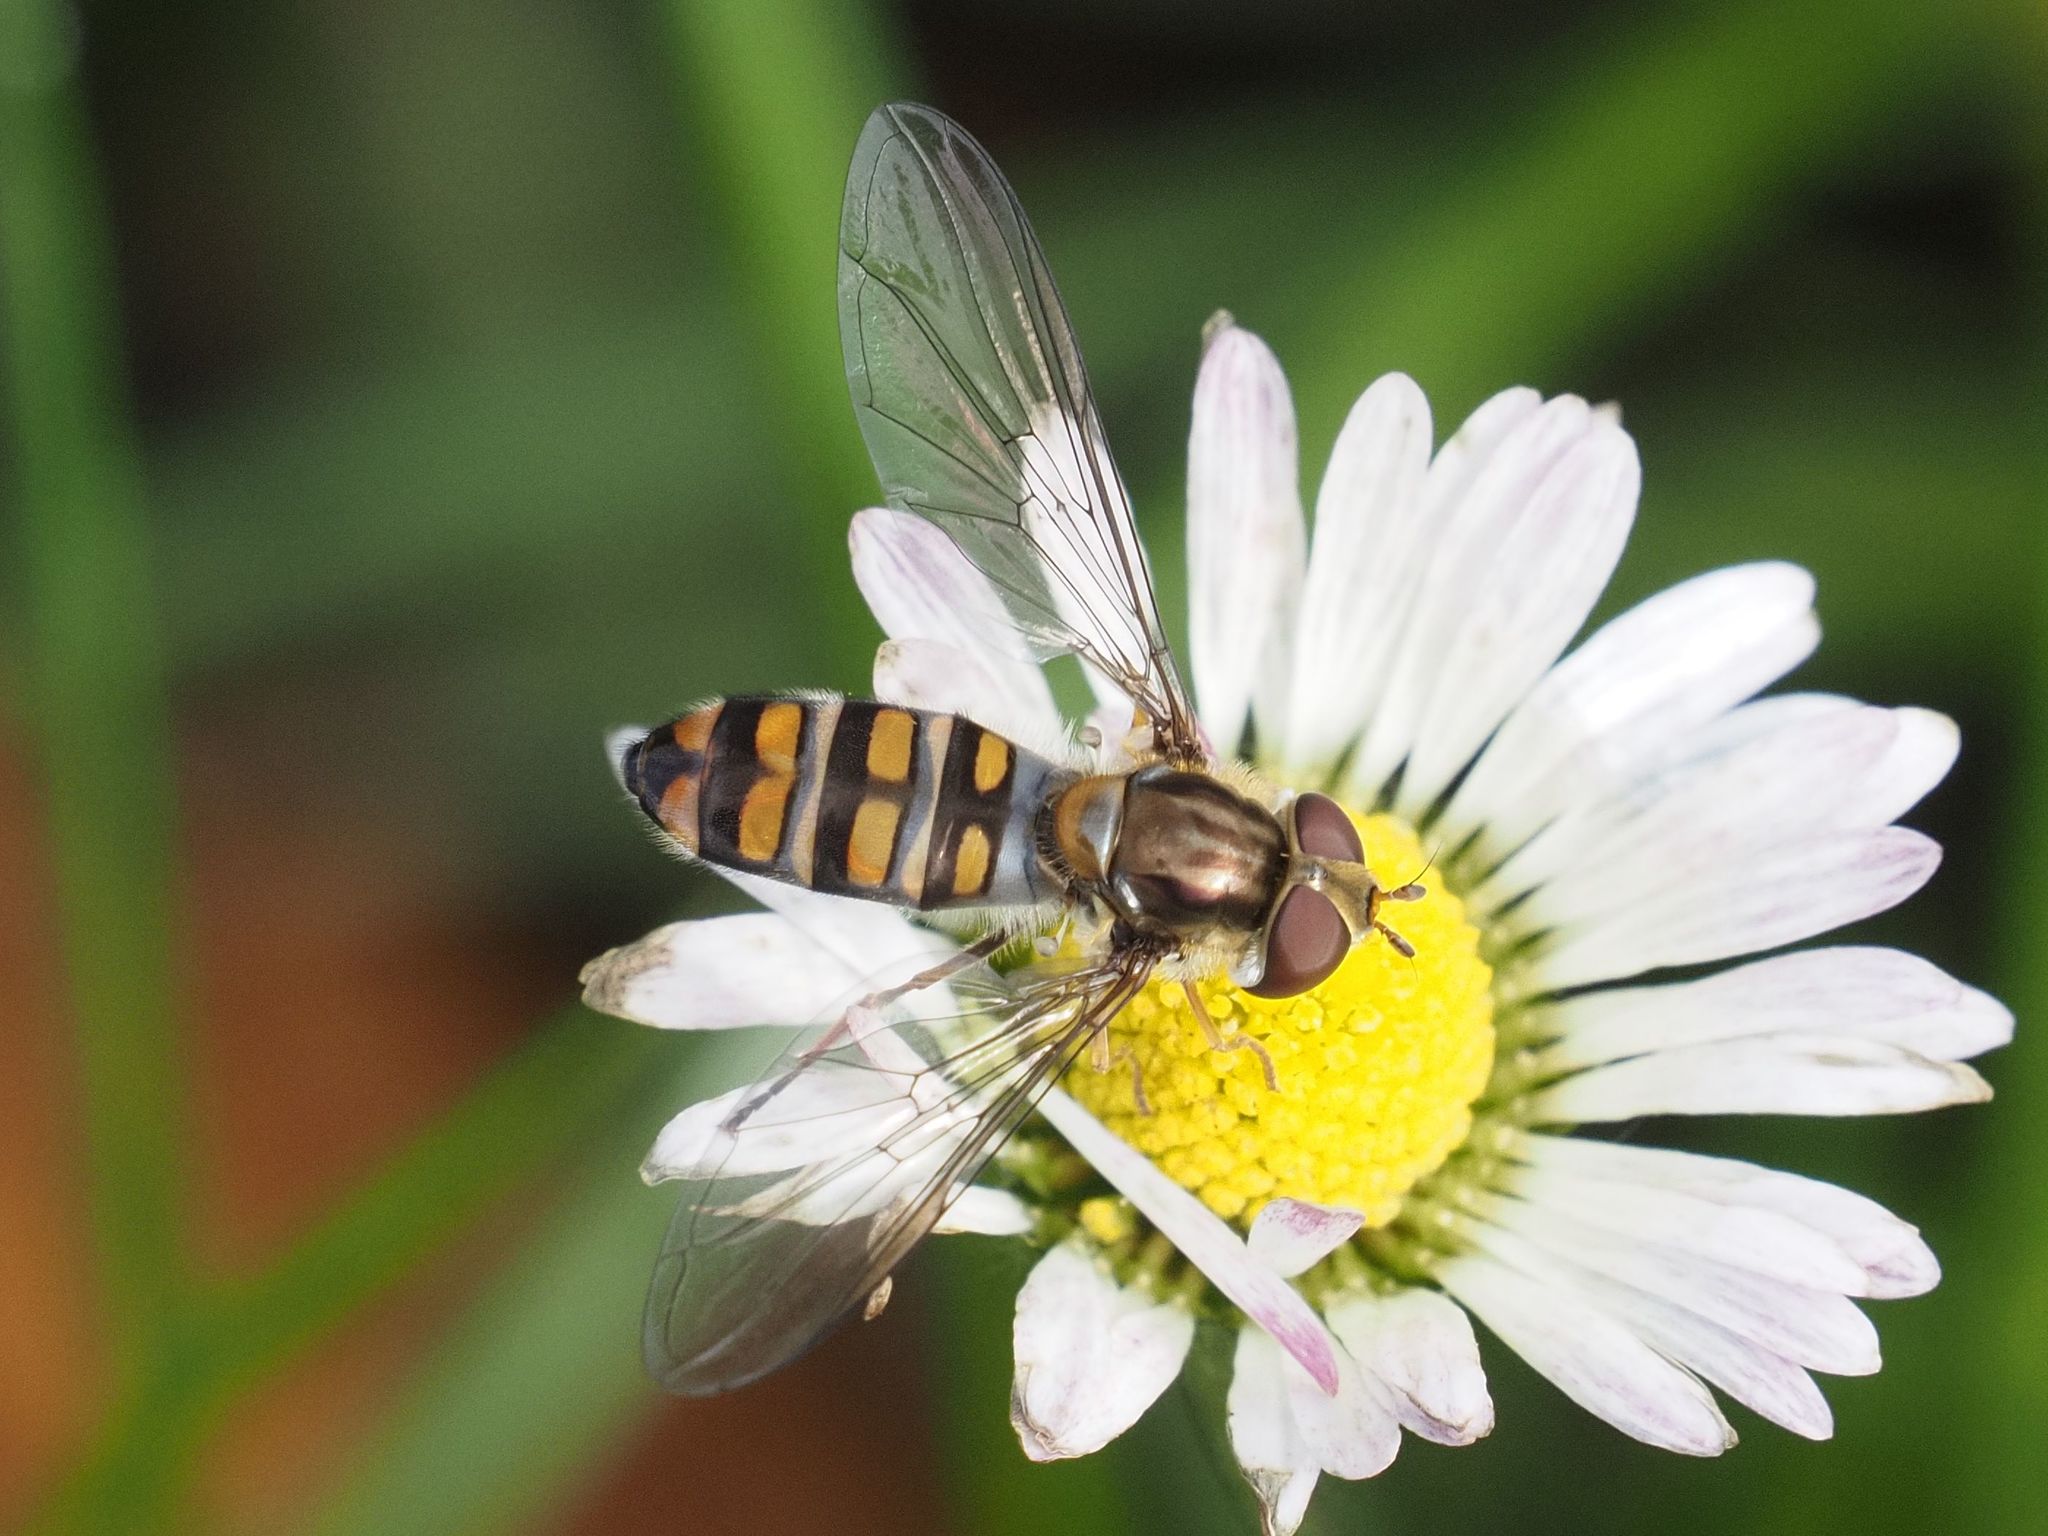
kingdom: Animalia
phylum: Arthropoda
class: Insecta
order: Diptera
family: Syrphidae
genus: Episyrphus
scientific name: Episyrphus balteatus
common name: Marmalade hoverfly
